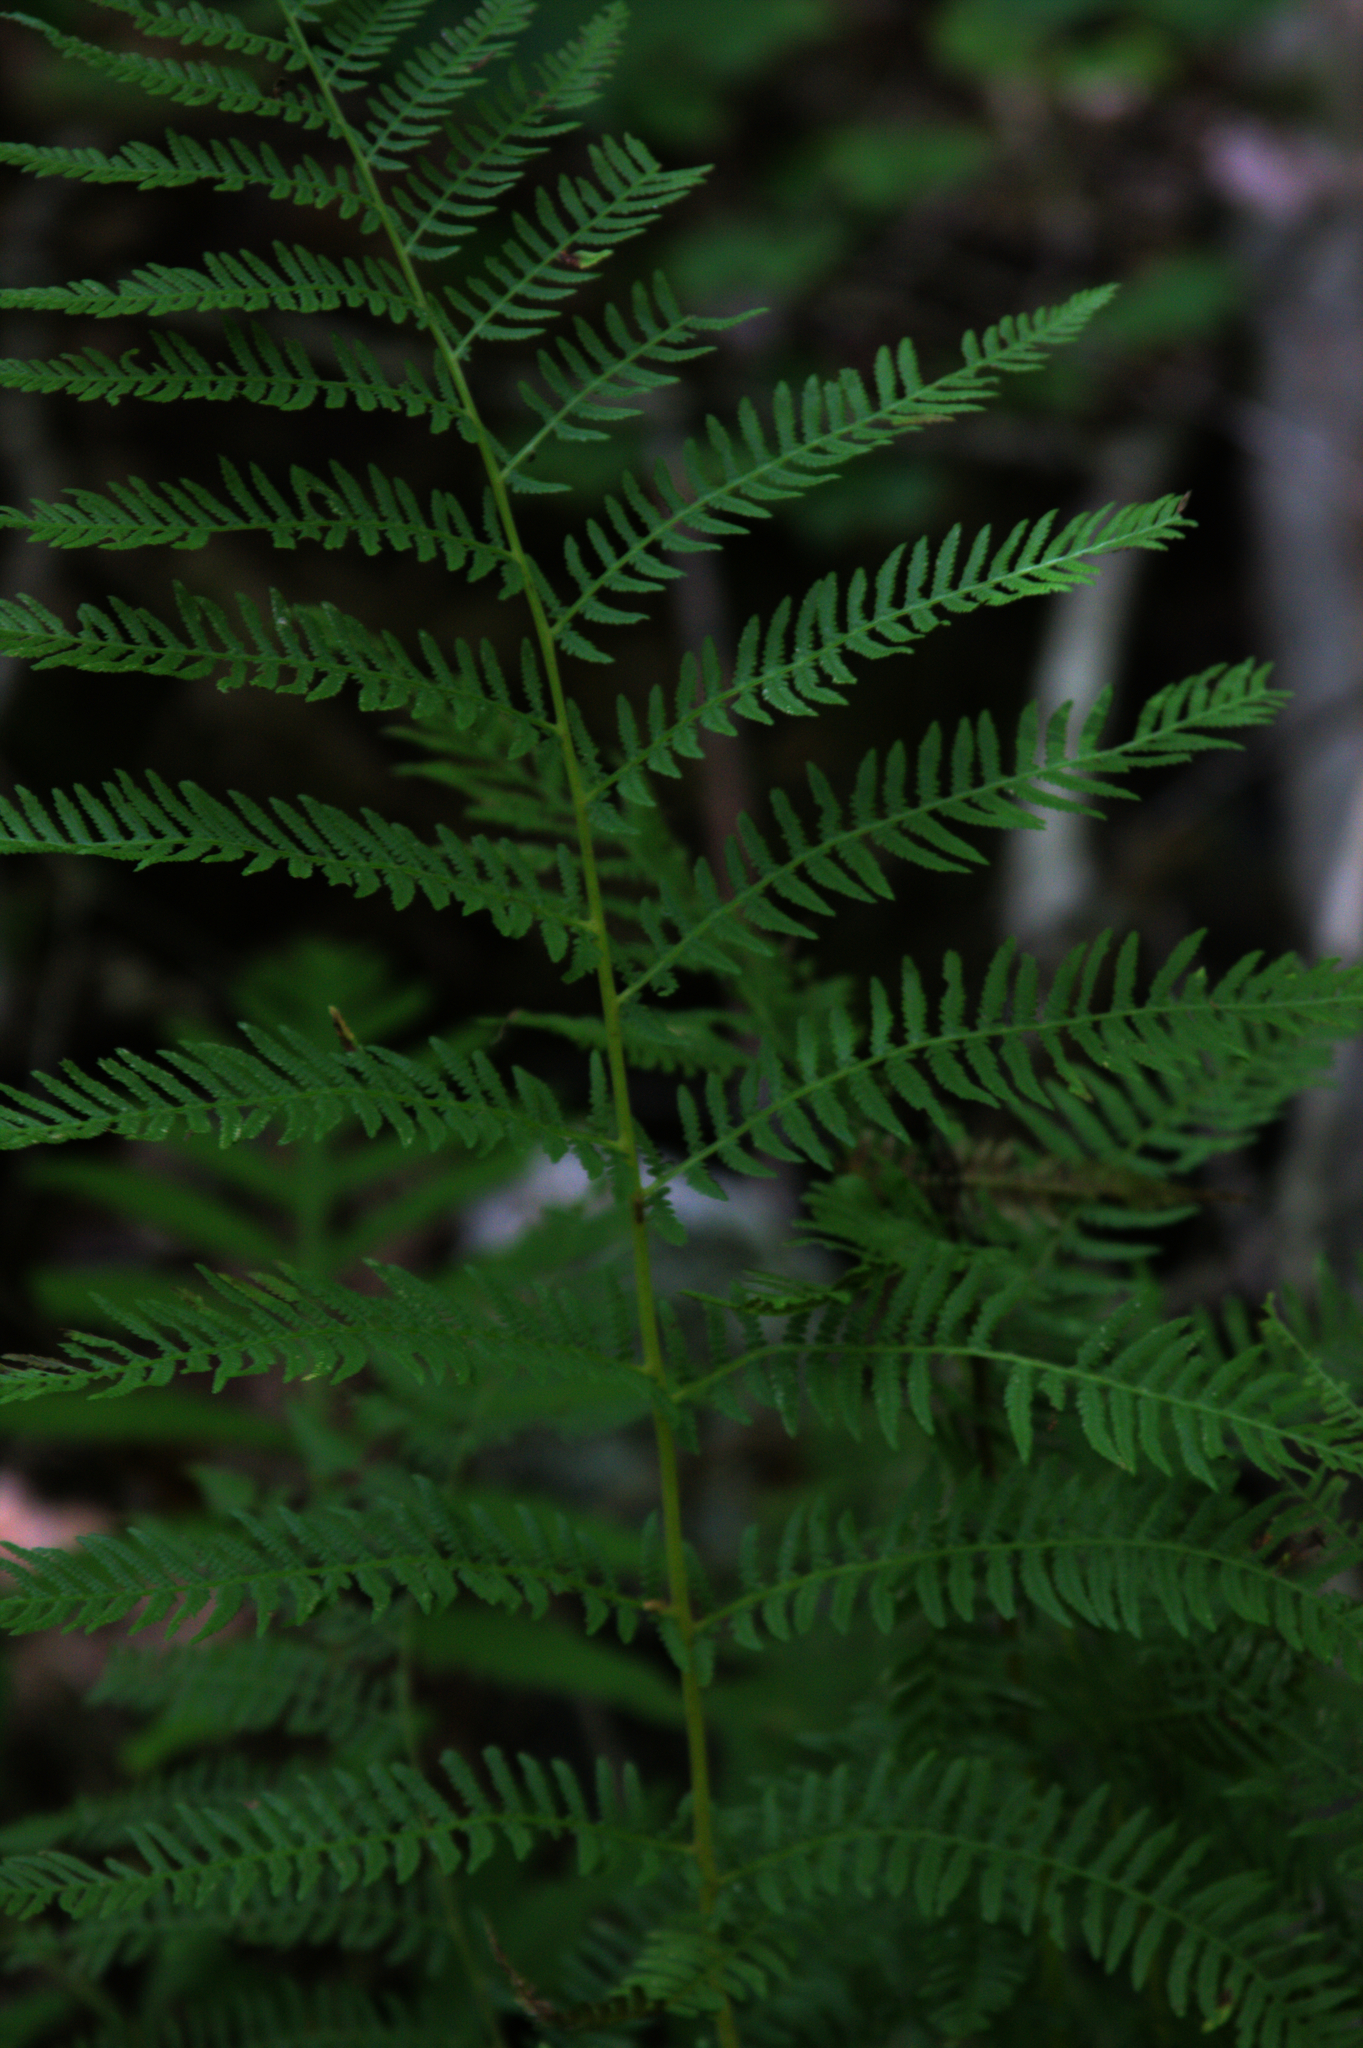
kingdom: Plantae
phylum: Tracheophyta
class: Polypodiopsida
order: Polypodiales
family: Athyriaceae
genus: Athyrium
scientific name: Athyrium angustum
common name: Northern lady fern
